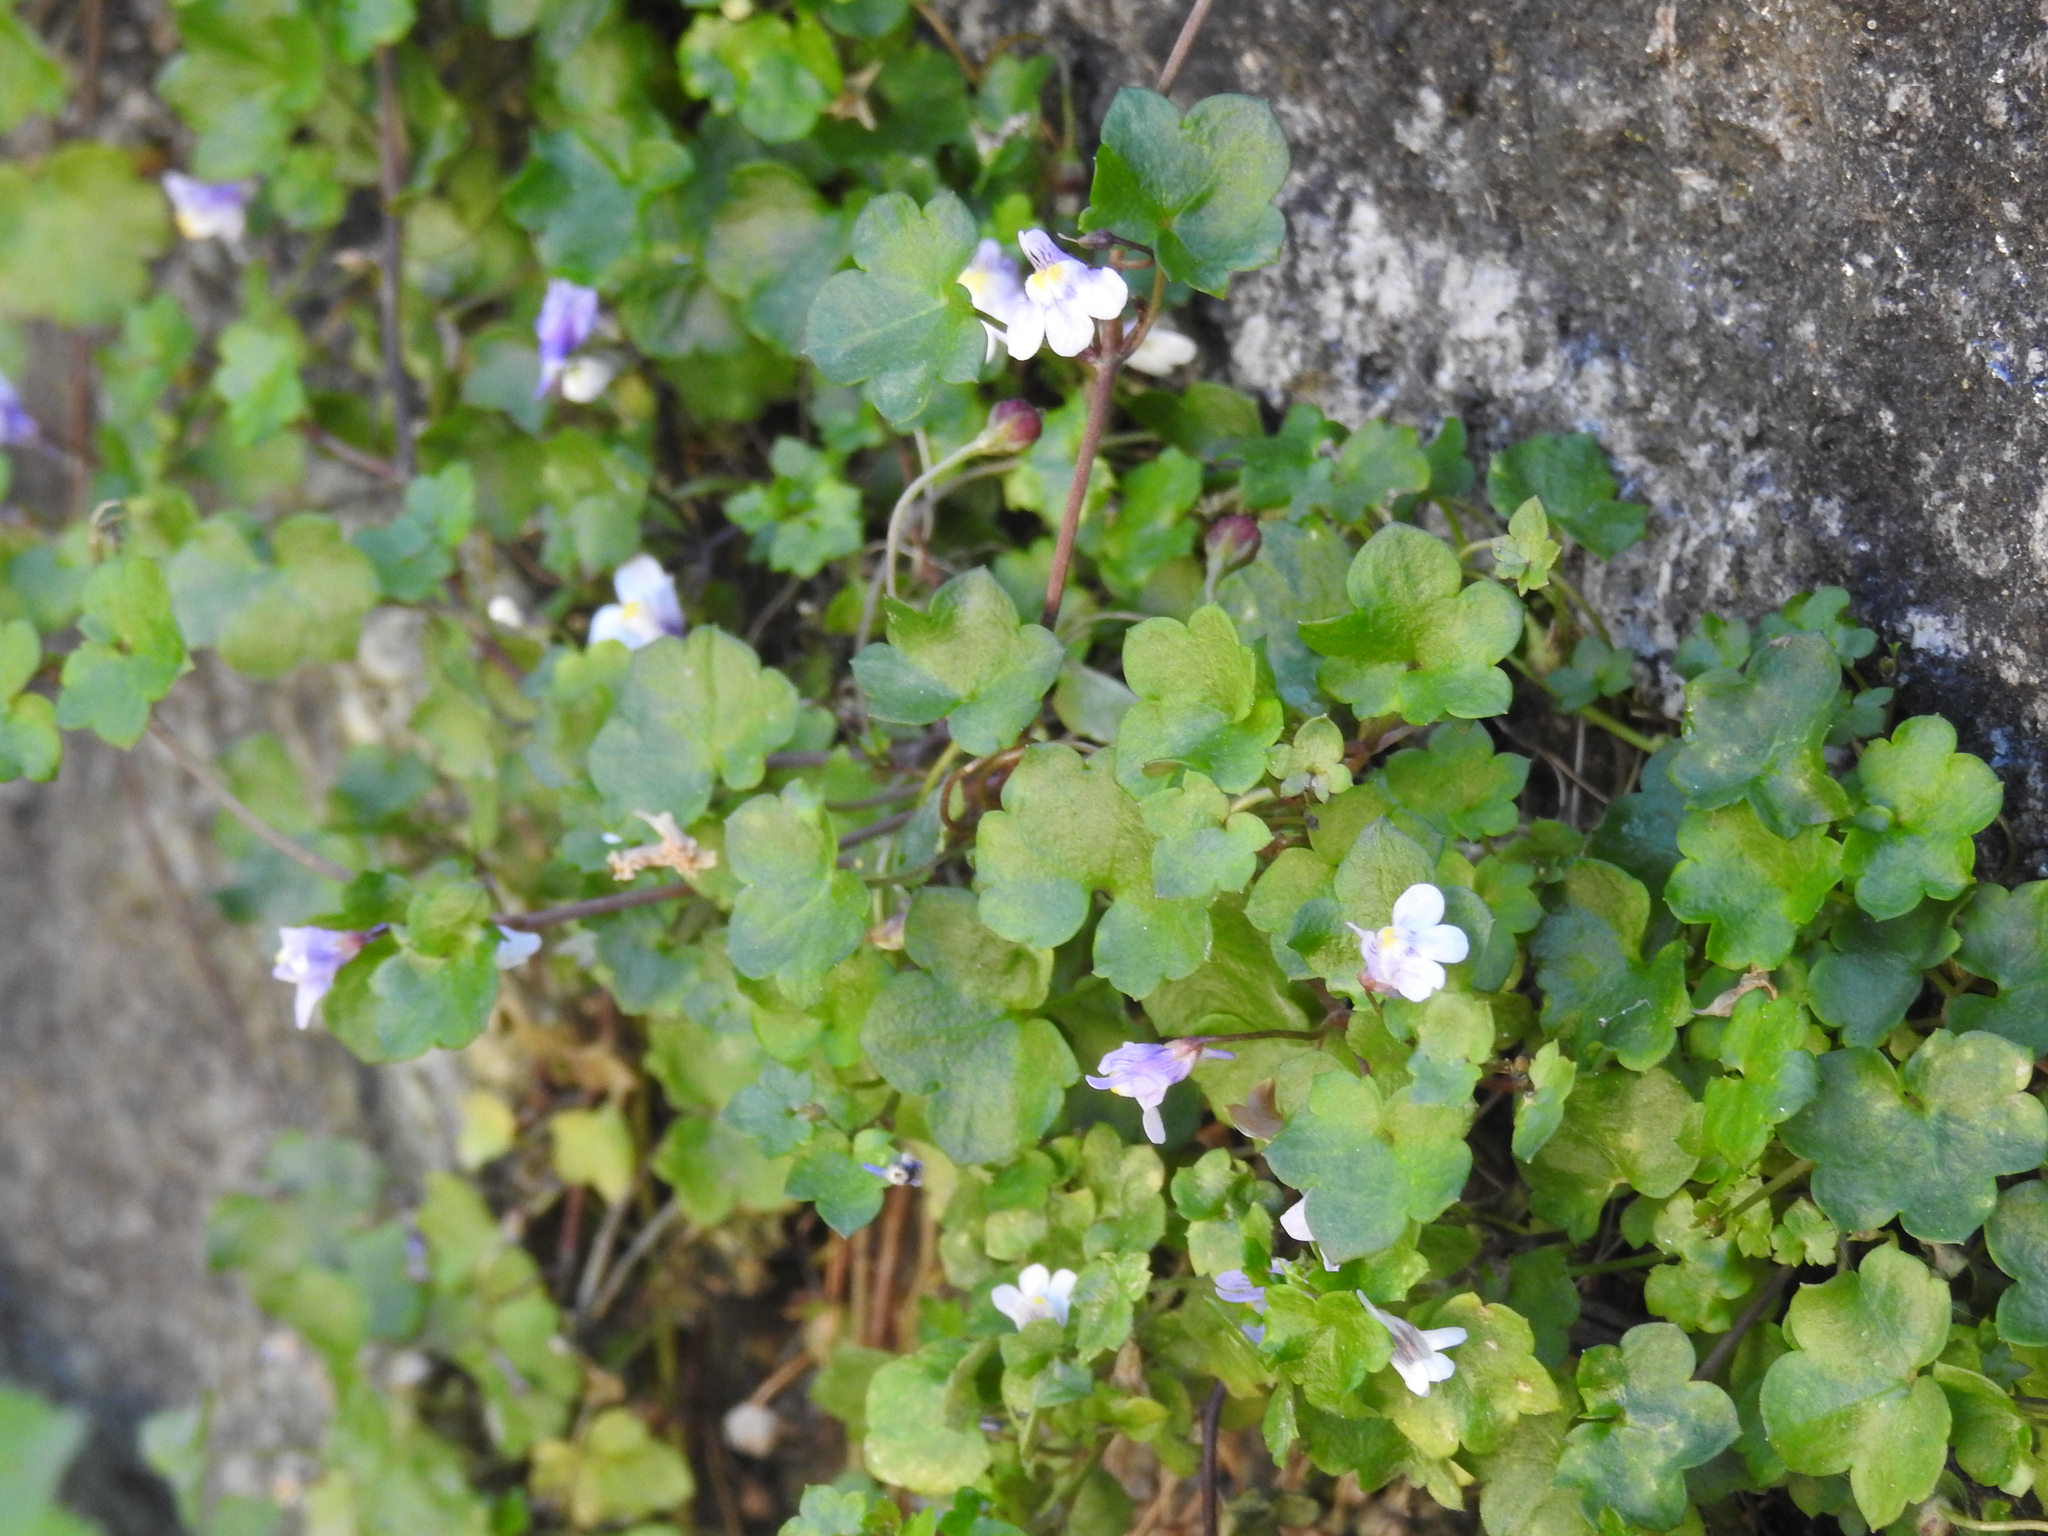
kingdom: Plantae
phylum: Tracheophyta
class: Magnoliopsida
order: Lamiales
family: Plantaginaceae
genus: Cymbalaria
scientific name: Cymbalaria muralis
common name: Ivy-leaved toadflax
